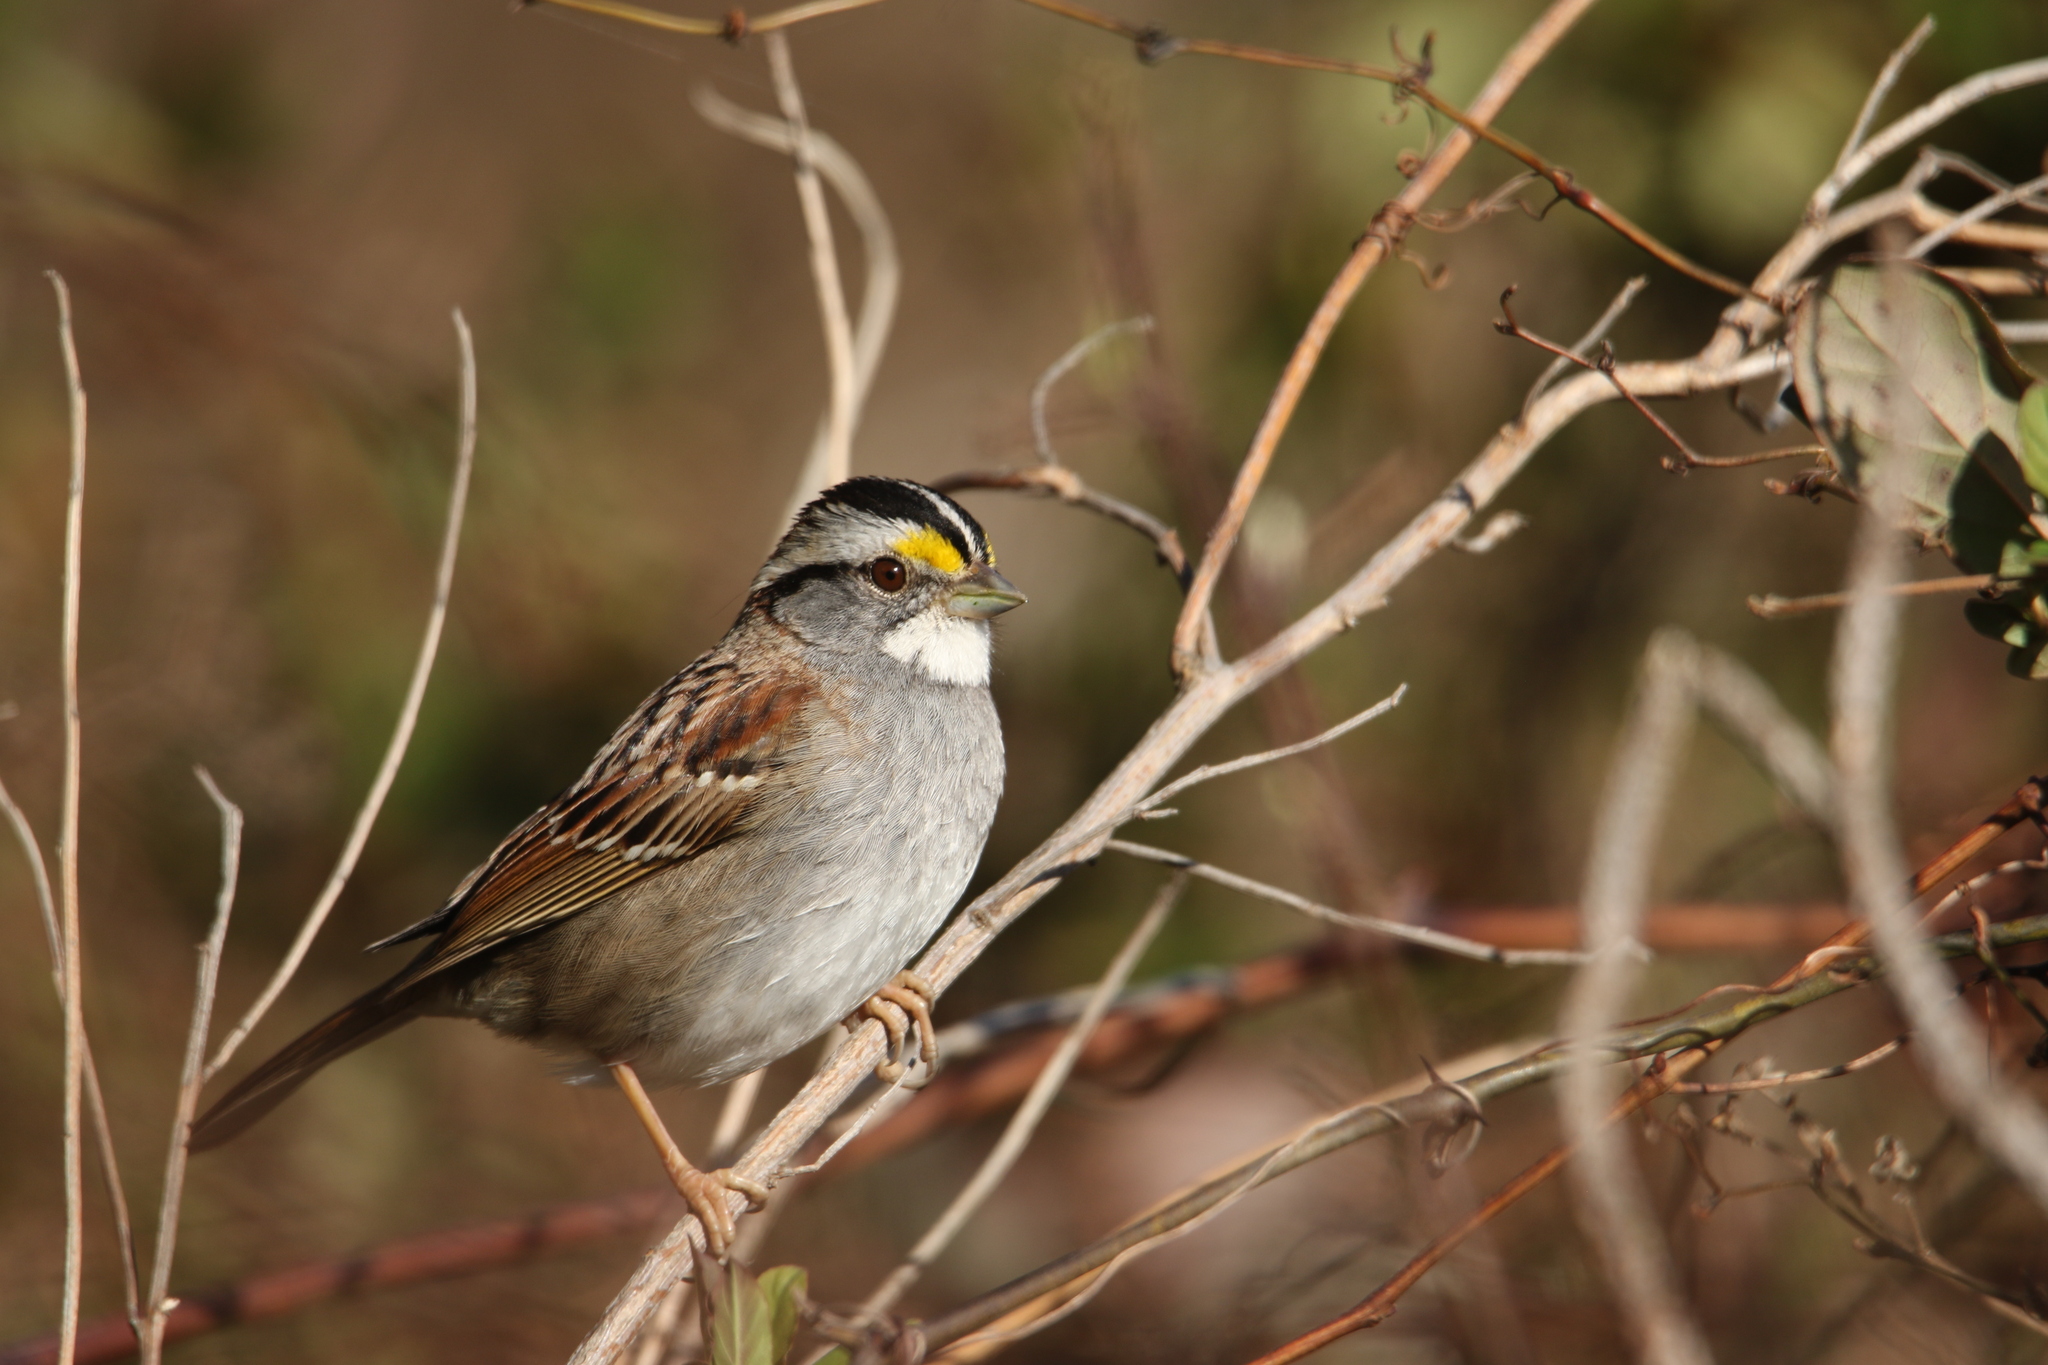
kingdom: Animalia
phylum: Chordata
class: Aves
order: Passeriformes
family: Passerellidae
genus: Zonotrichia
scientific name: Zonotrichia albicollis
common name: White-throated sparrow
